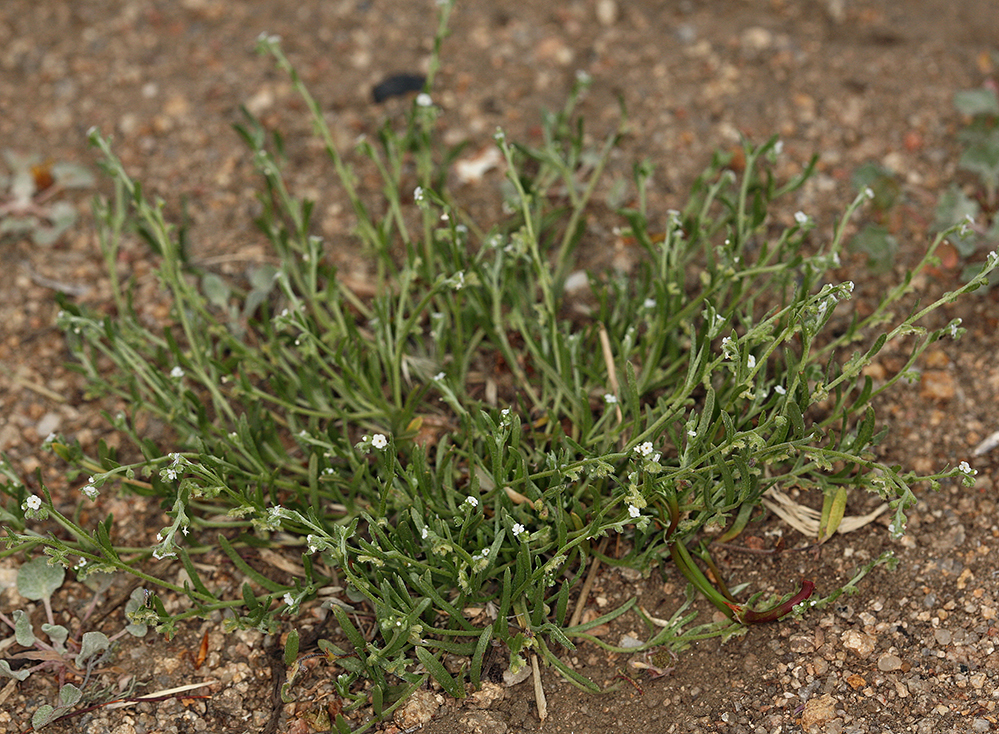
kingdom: Plantae
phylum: Tracheophyta
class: Magnoliopsida
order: Boraginales
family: Boraginaceae
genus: Pectocarya
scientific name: Pectocarya penicillata
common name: Short-leaved combseed
